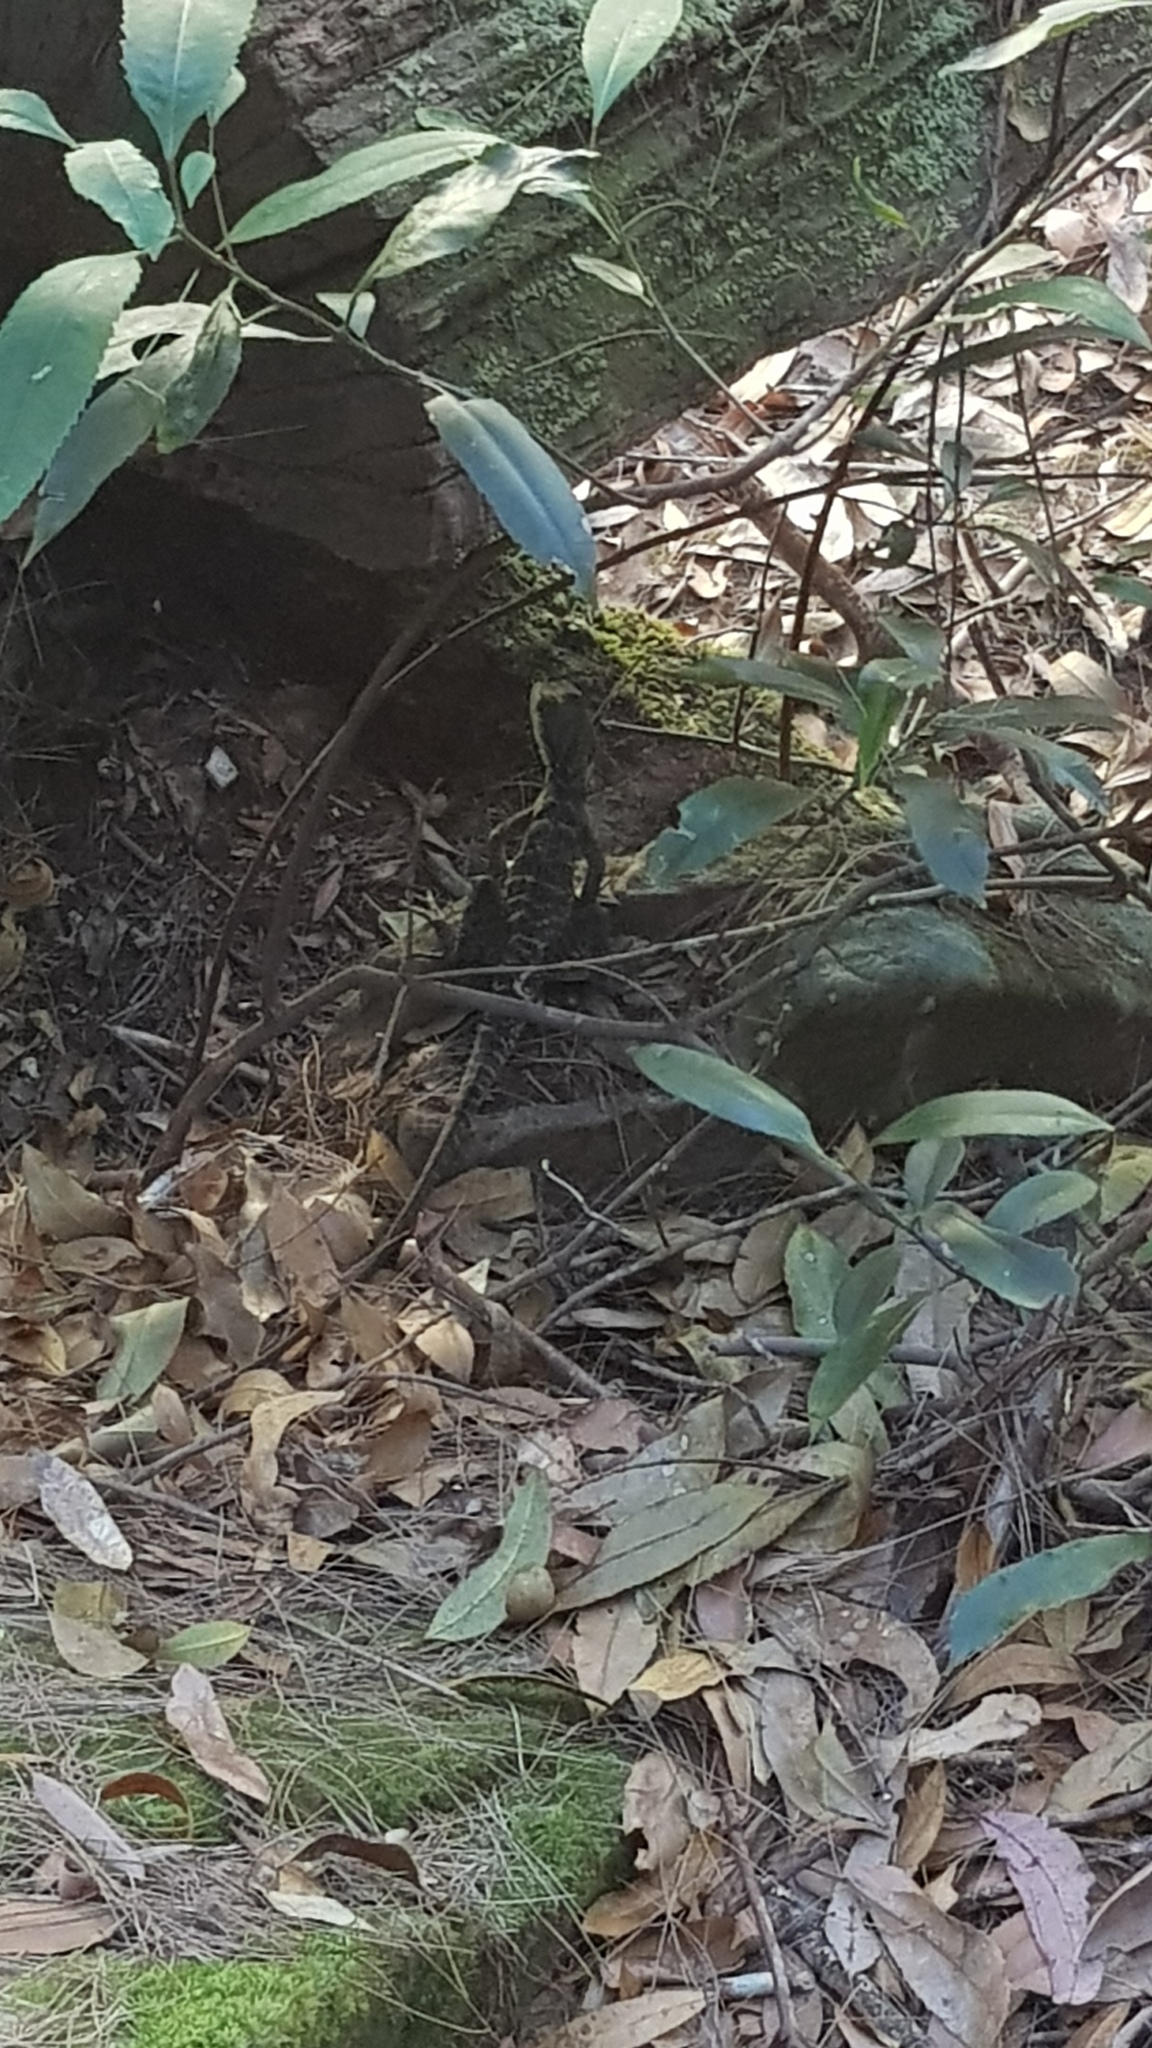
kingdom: Animalia
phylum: Chordata
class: Squamata
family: Agamidae
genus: Intellagama
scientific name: Intellagama lesueurii
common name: Eastern water dragon
